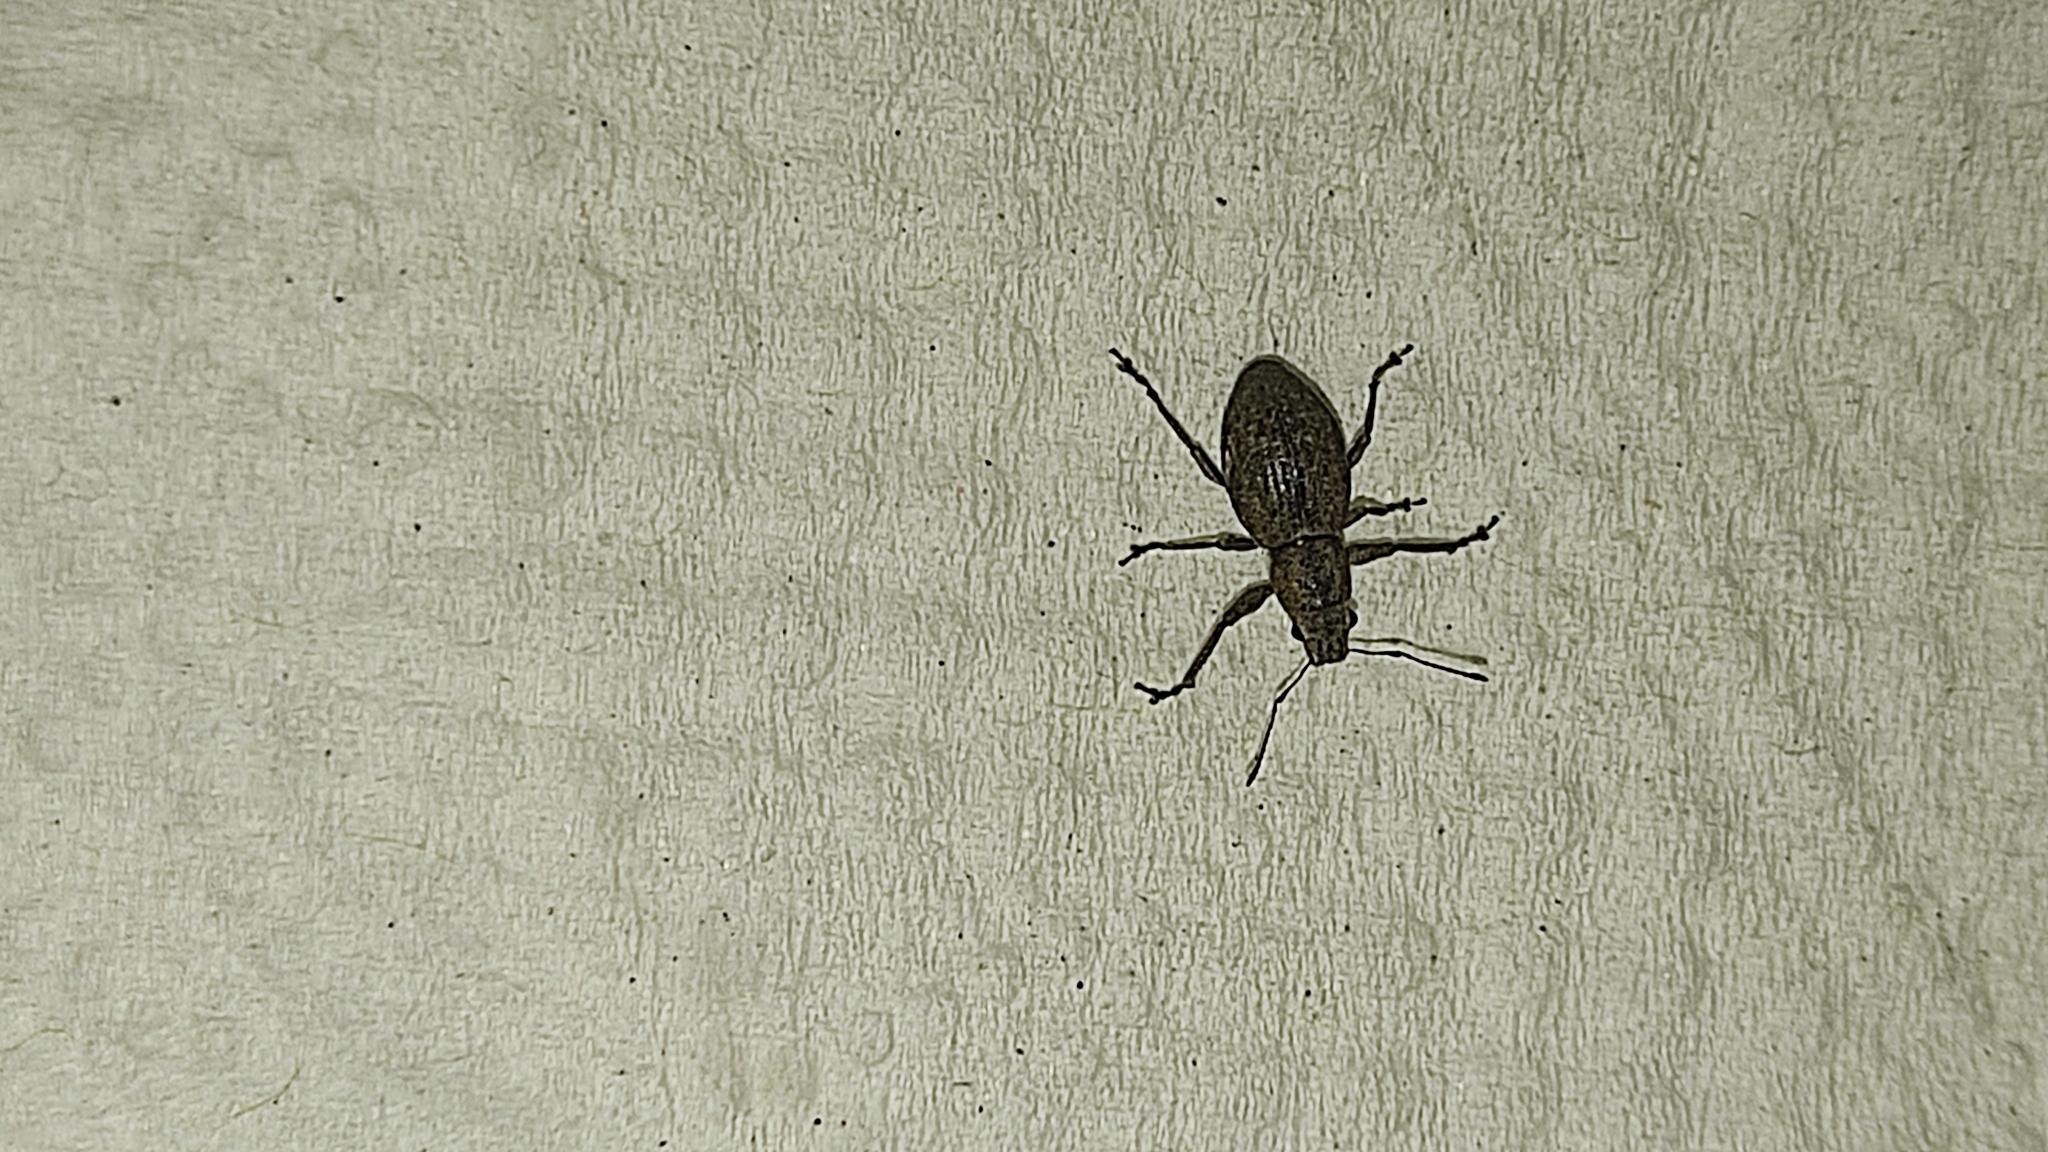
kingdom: Animalia
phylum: Arthropoda
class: Insecta
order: Coleoptera
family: Curculionidae
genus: Naupactus
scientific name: Naupactus cervinus
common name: Fuller rose beetle
